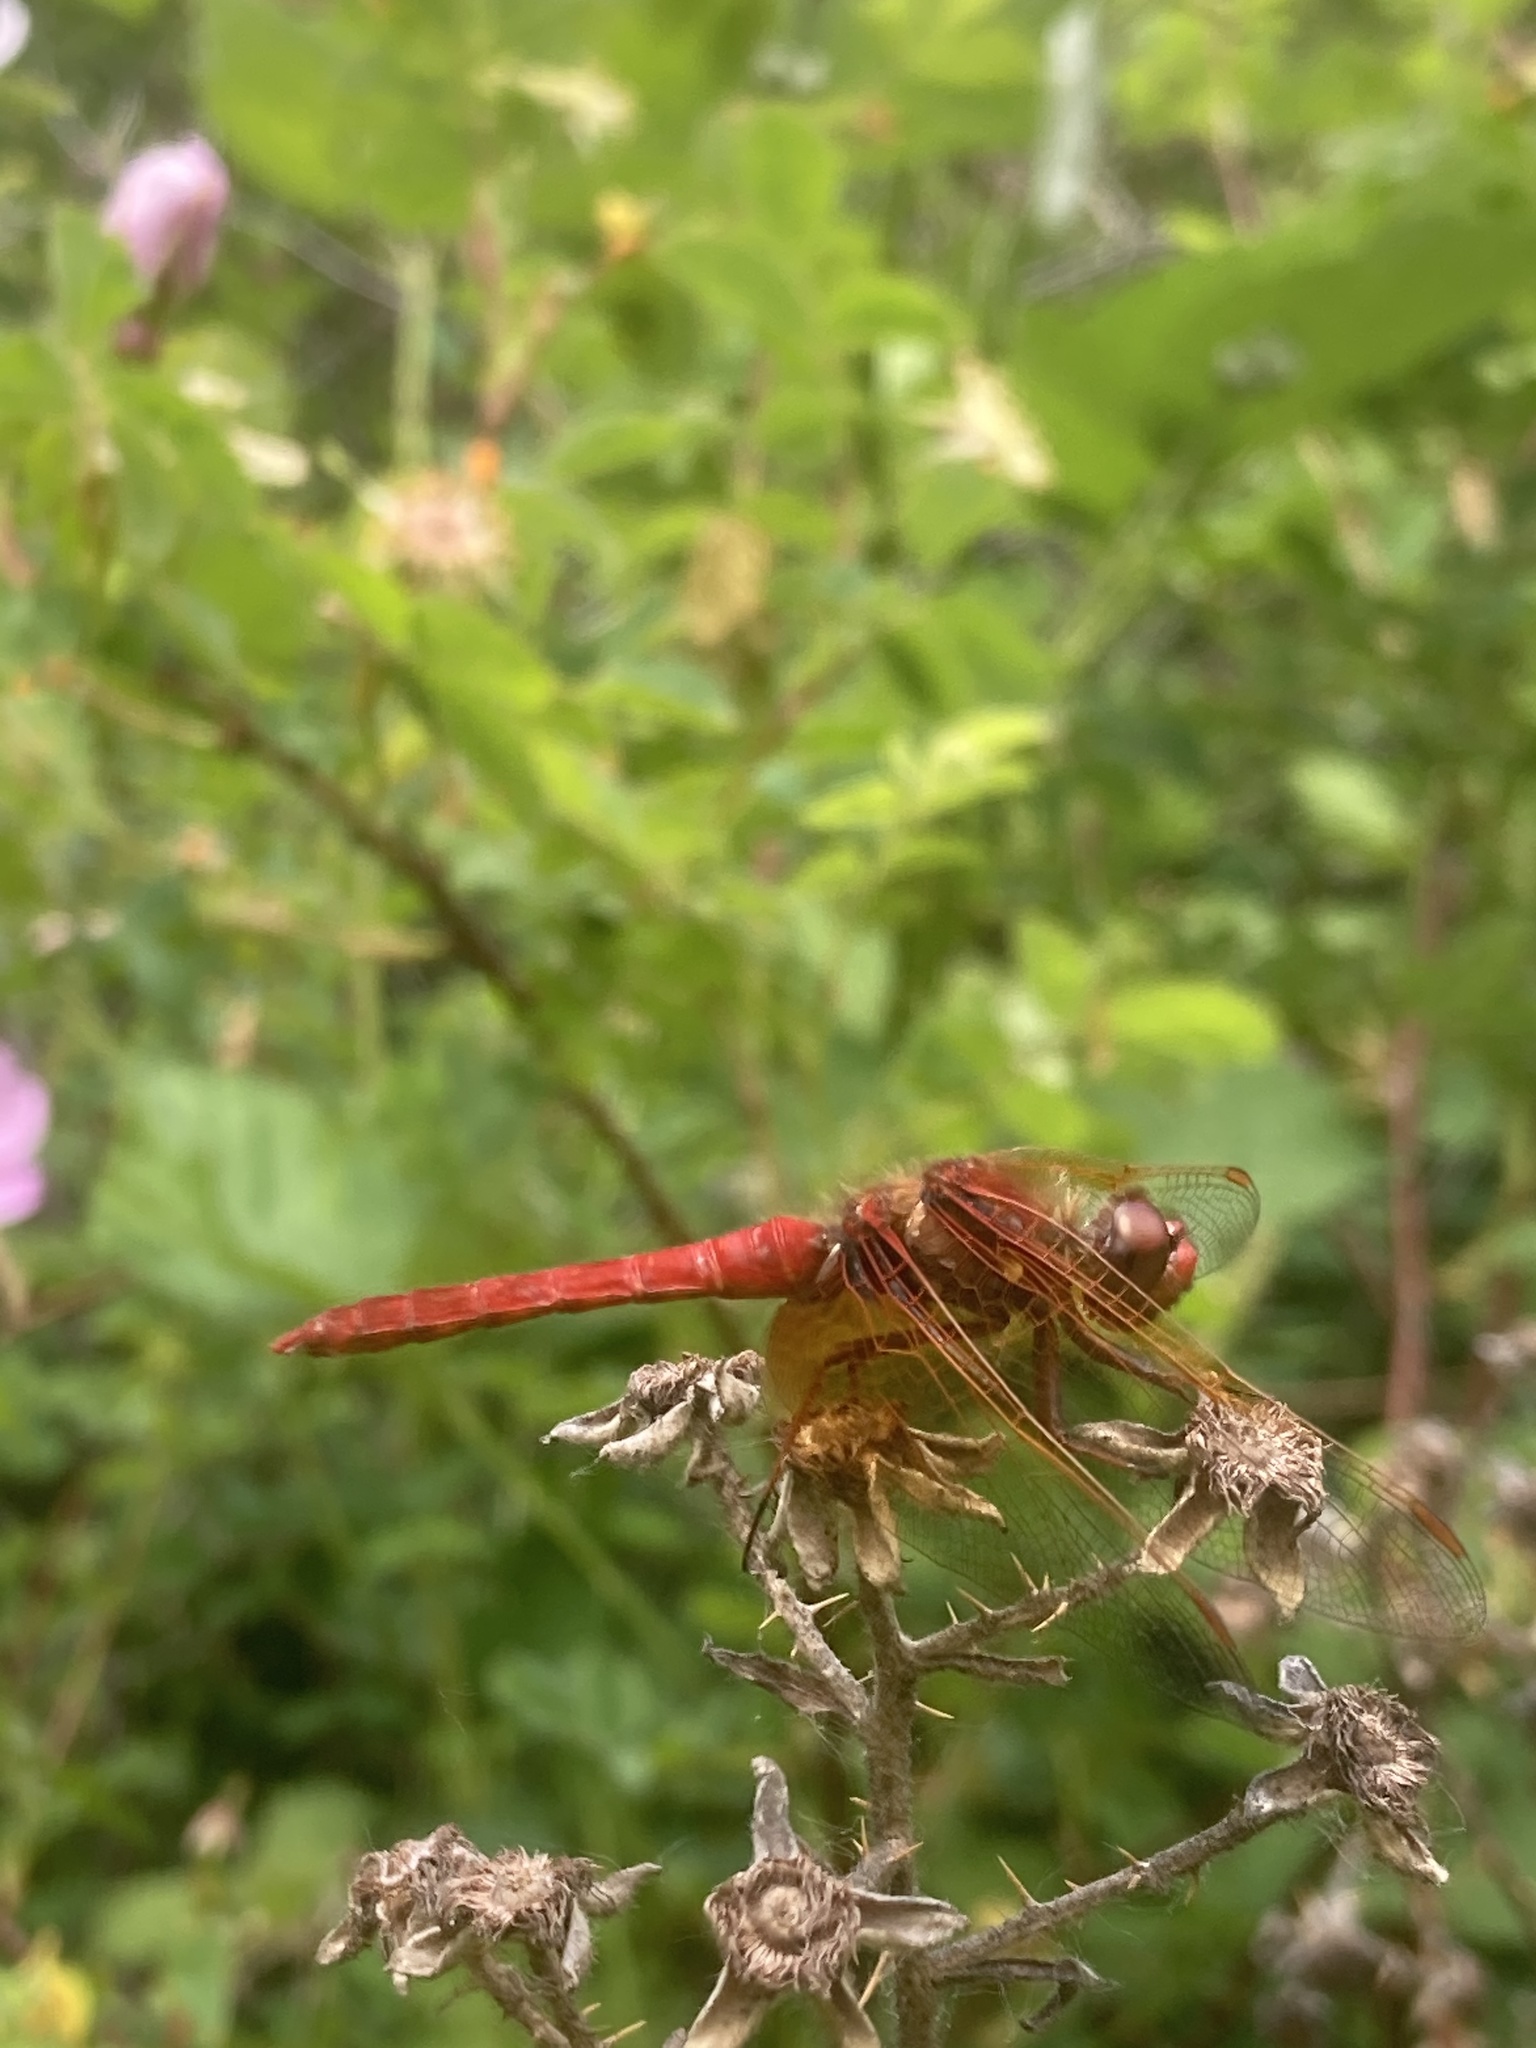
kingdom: Animalia
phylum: Arthropoda
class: Insecta
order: Odonata
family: Libellulidae
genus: Sympetrum
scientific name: Sympetrum illotum
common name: Cardinal meadowhawk
